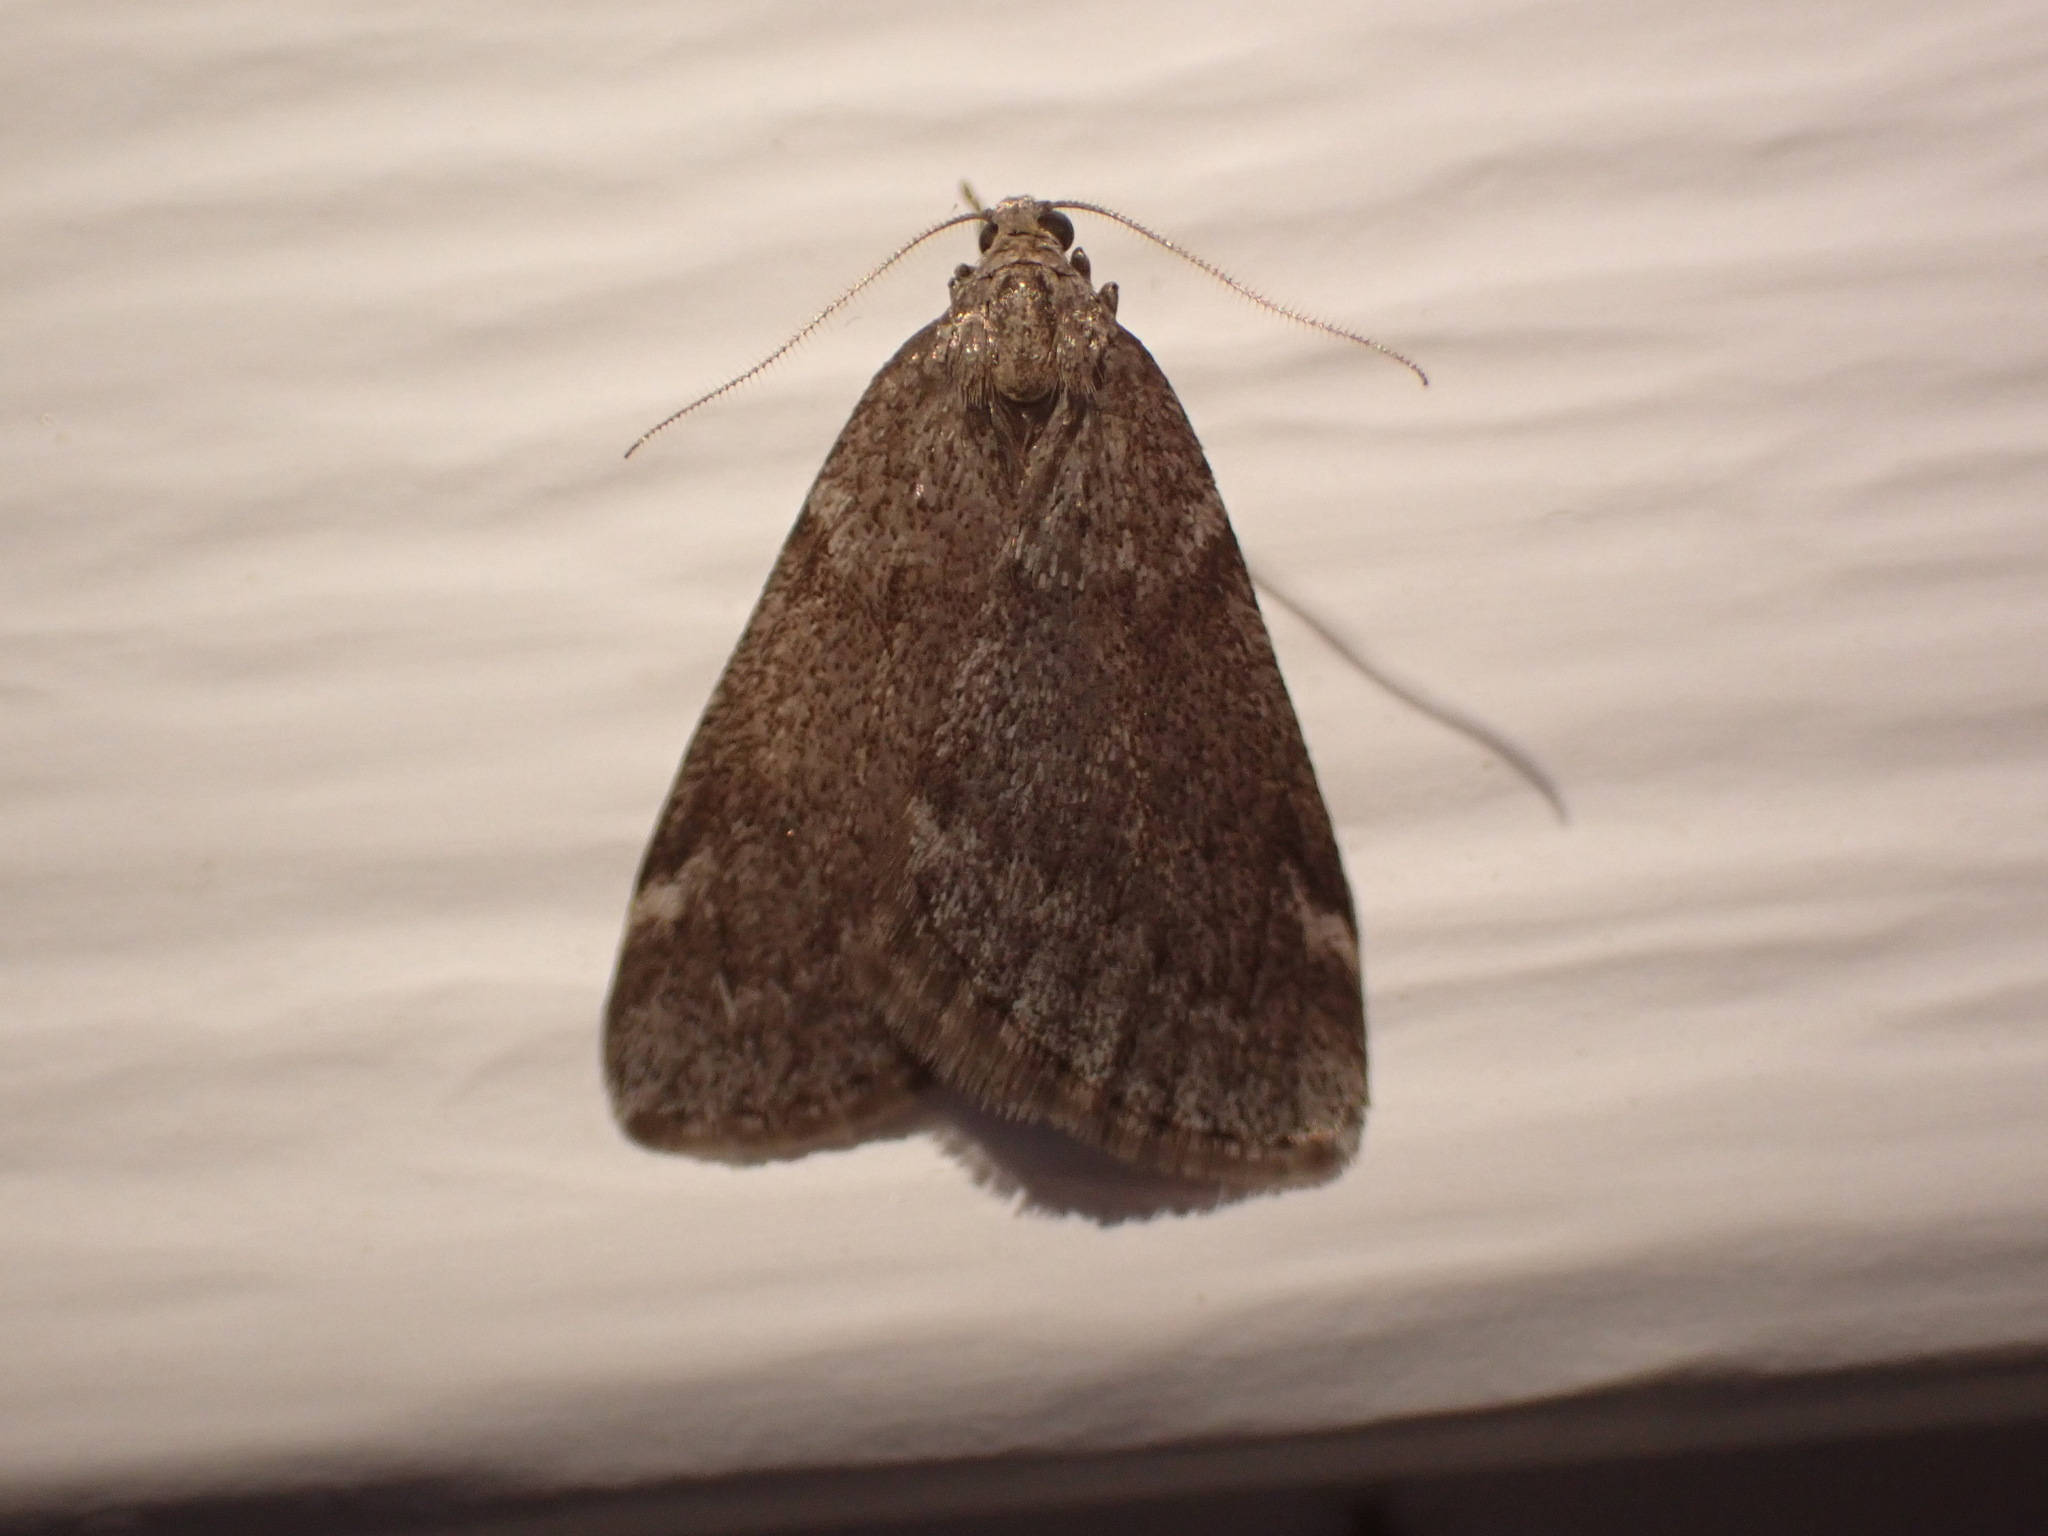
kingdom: Animalia
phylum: Arthropoda
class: Insecta
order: Lepidoptera
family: Geometridae
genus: Alsophila
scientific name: Alsophila pometaria
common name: Fall cankerworm
